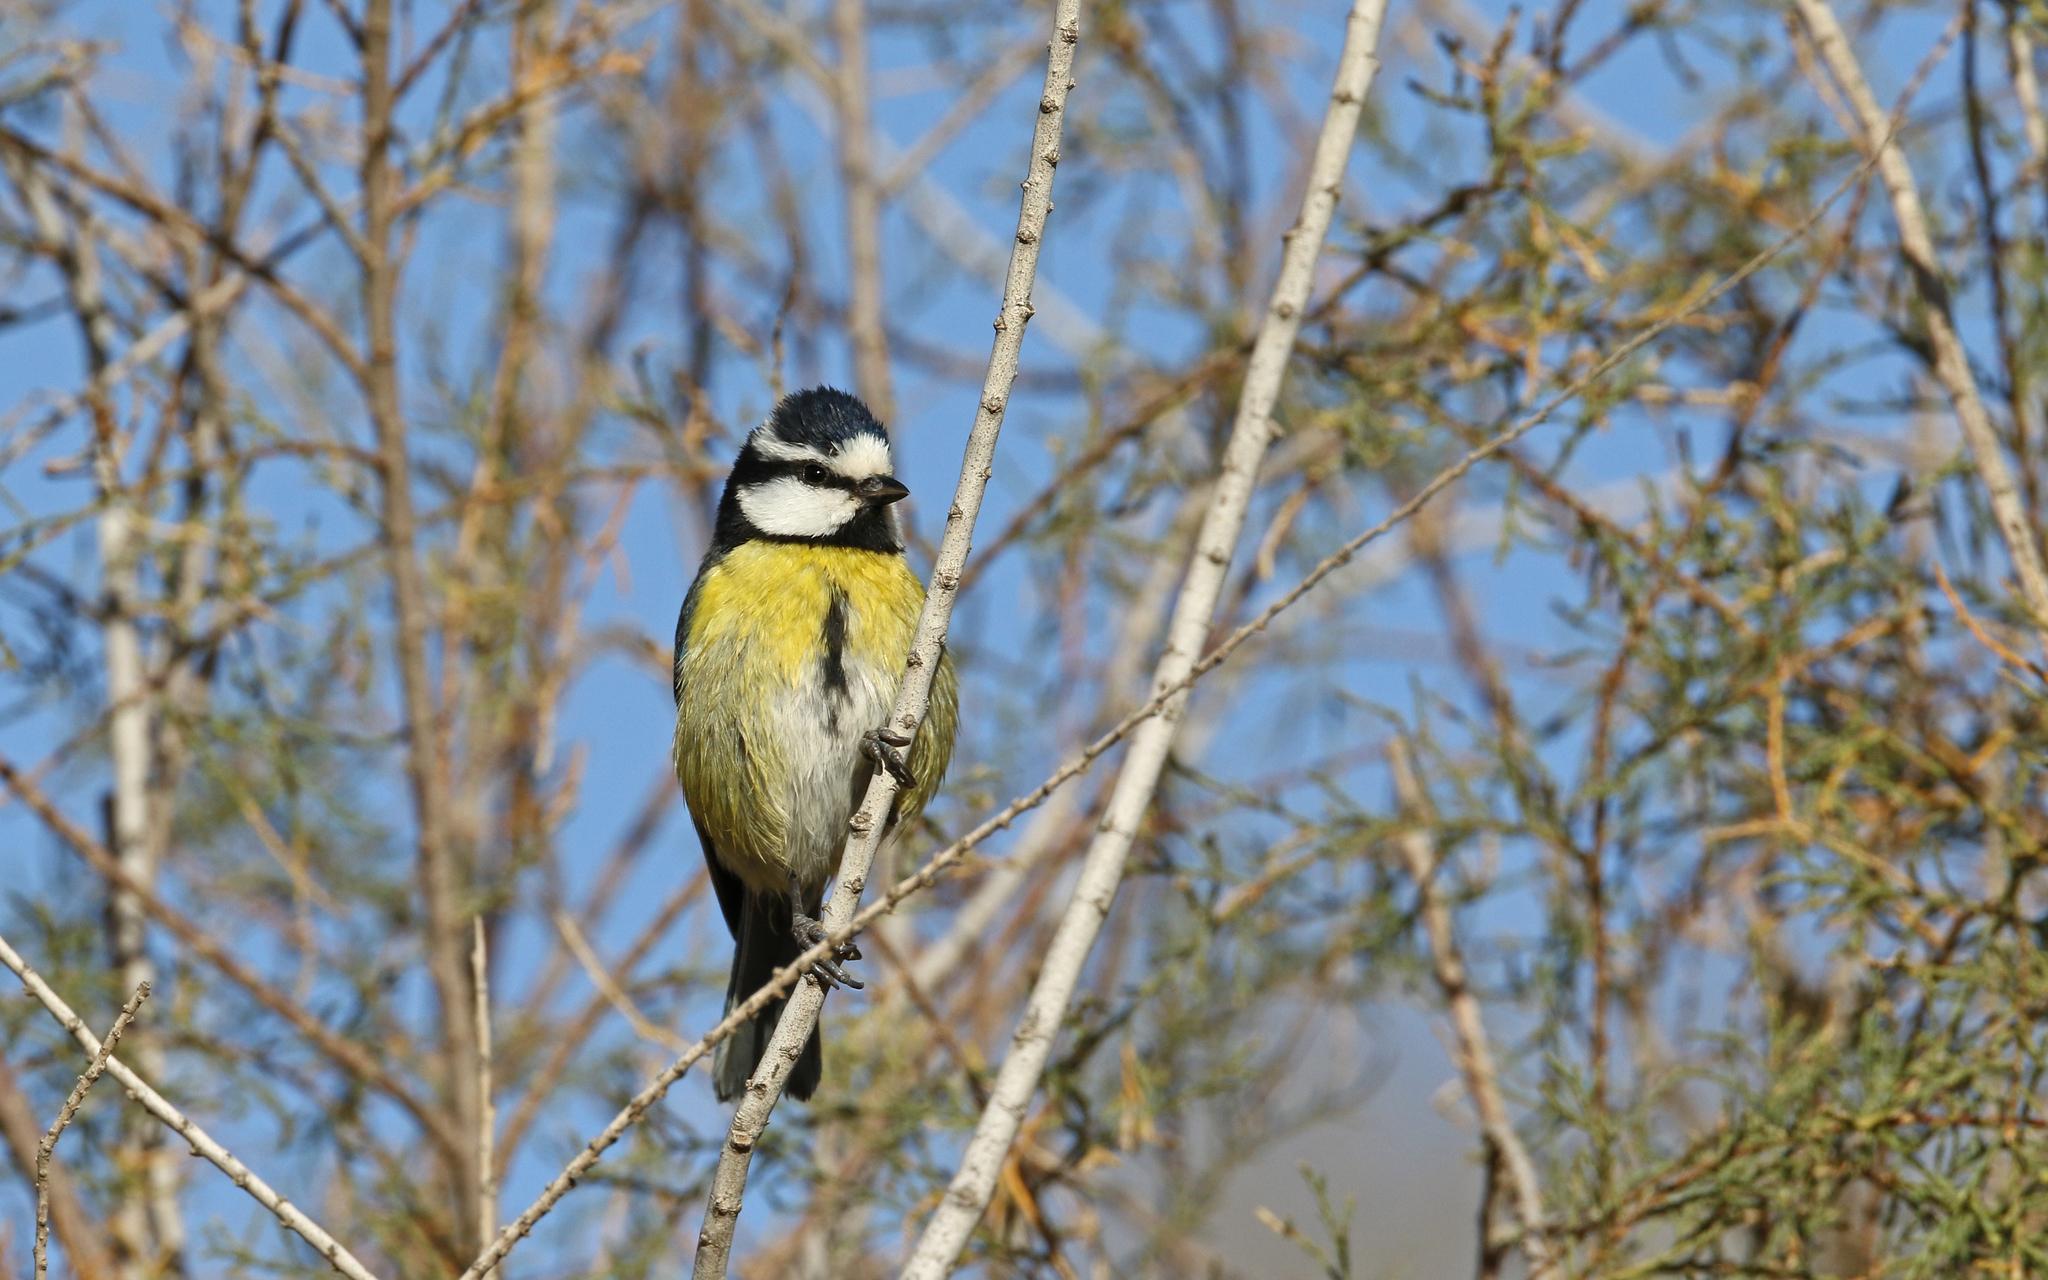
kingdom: Animalia
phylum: Chordata
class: Aves
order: Passeriformes
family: Paridae
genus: Cyanistes
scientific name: Cyanistes teneriffae
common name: African blue tit
